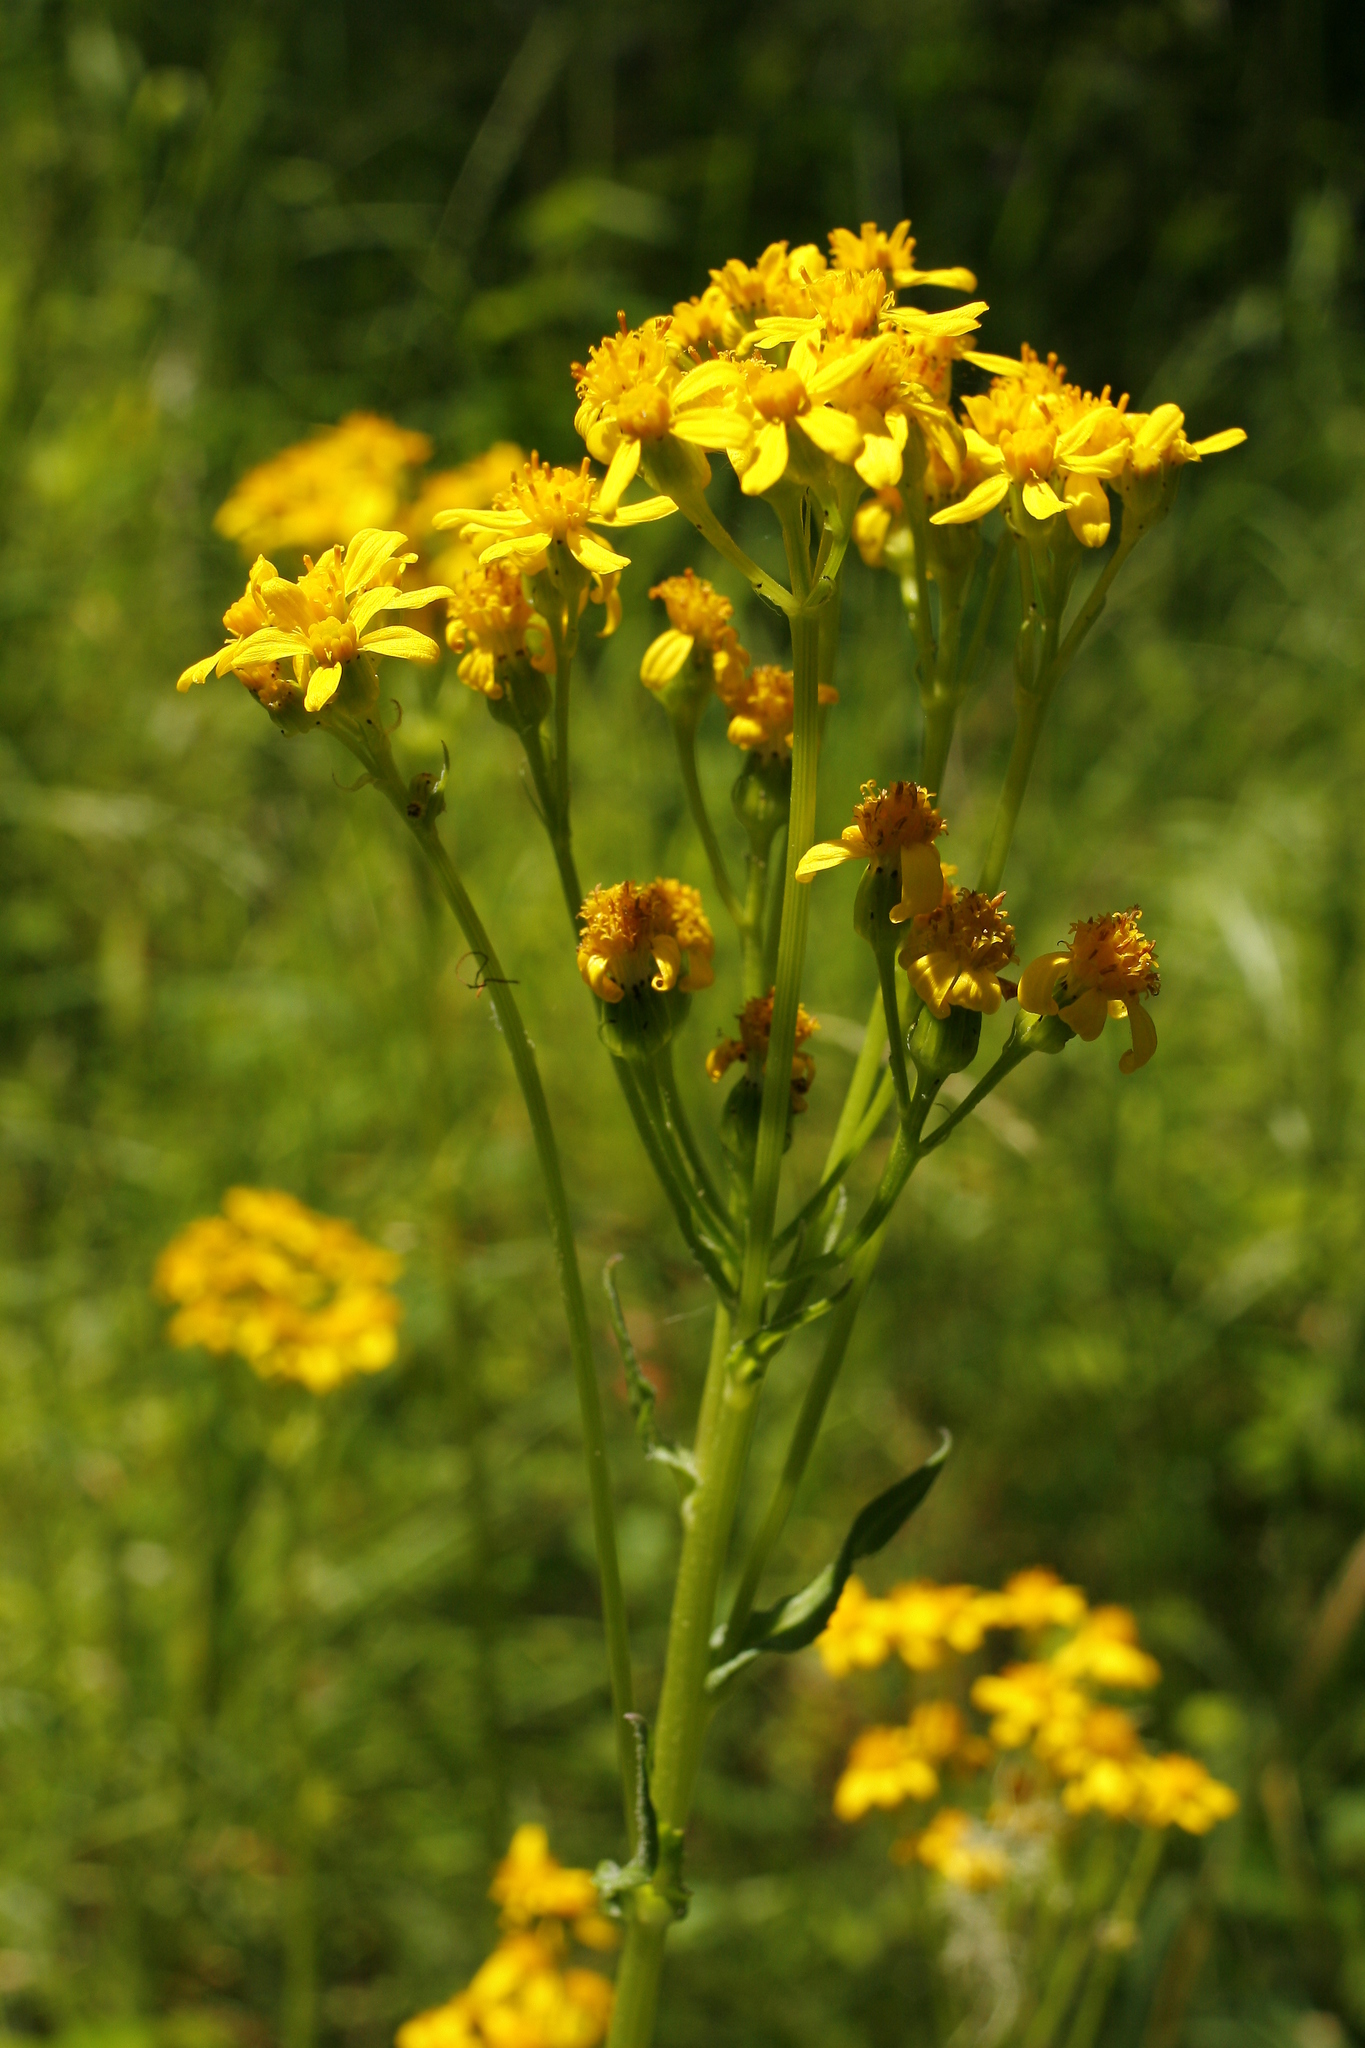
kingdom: Plantae
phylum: Tracheophyta
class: Magnoliopsida
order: Asterales
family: Asteraceae
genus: Senecio
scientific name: Senecio integerrimus
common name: Gaugeplant
